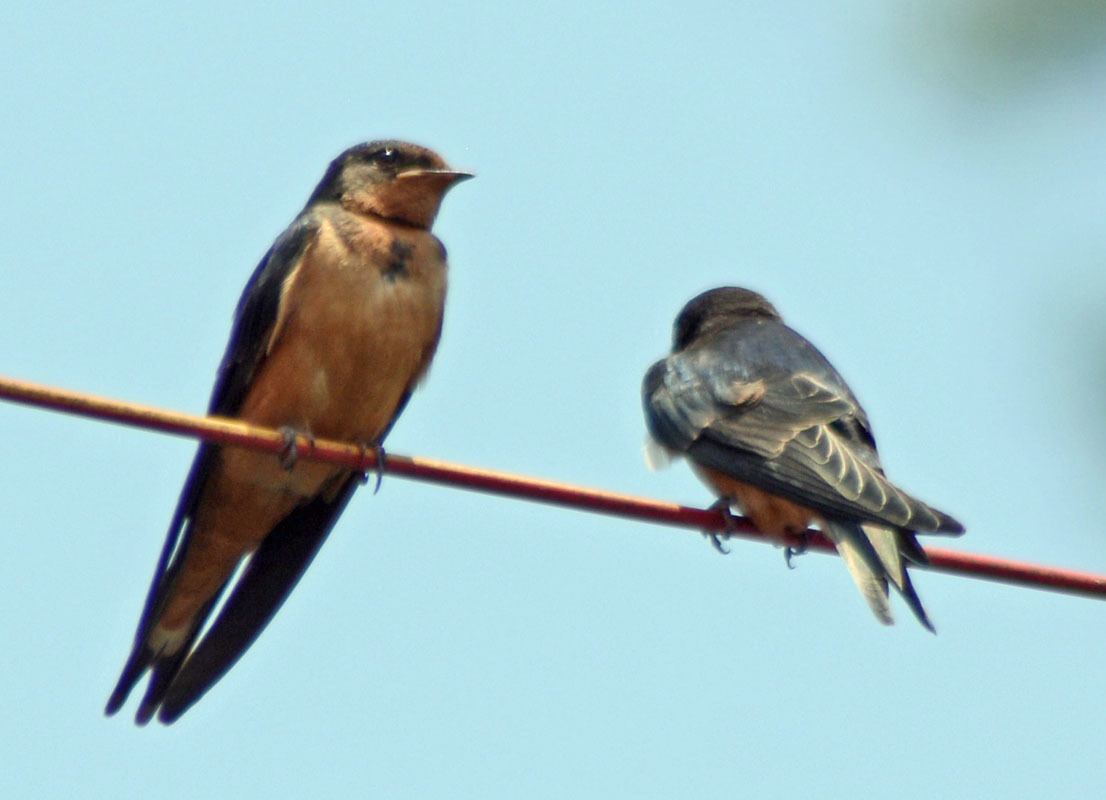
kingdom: Animalia
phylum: Chordata
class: Aves
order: Passeriformes
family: Hirundinidae
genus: Hirundo
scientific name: Hirundo rustica
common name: Barn swallow
